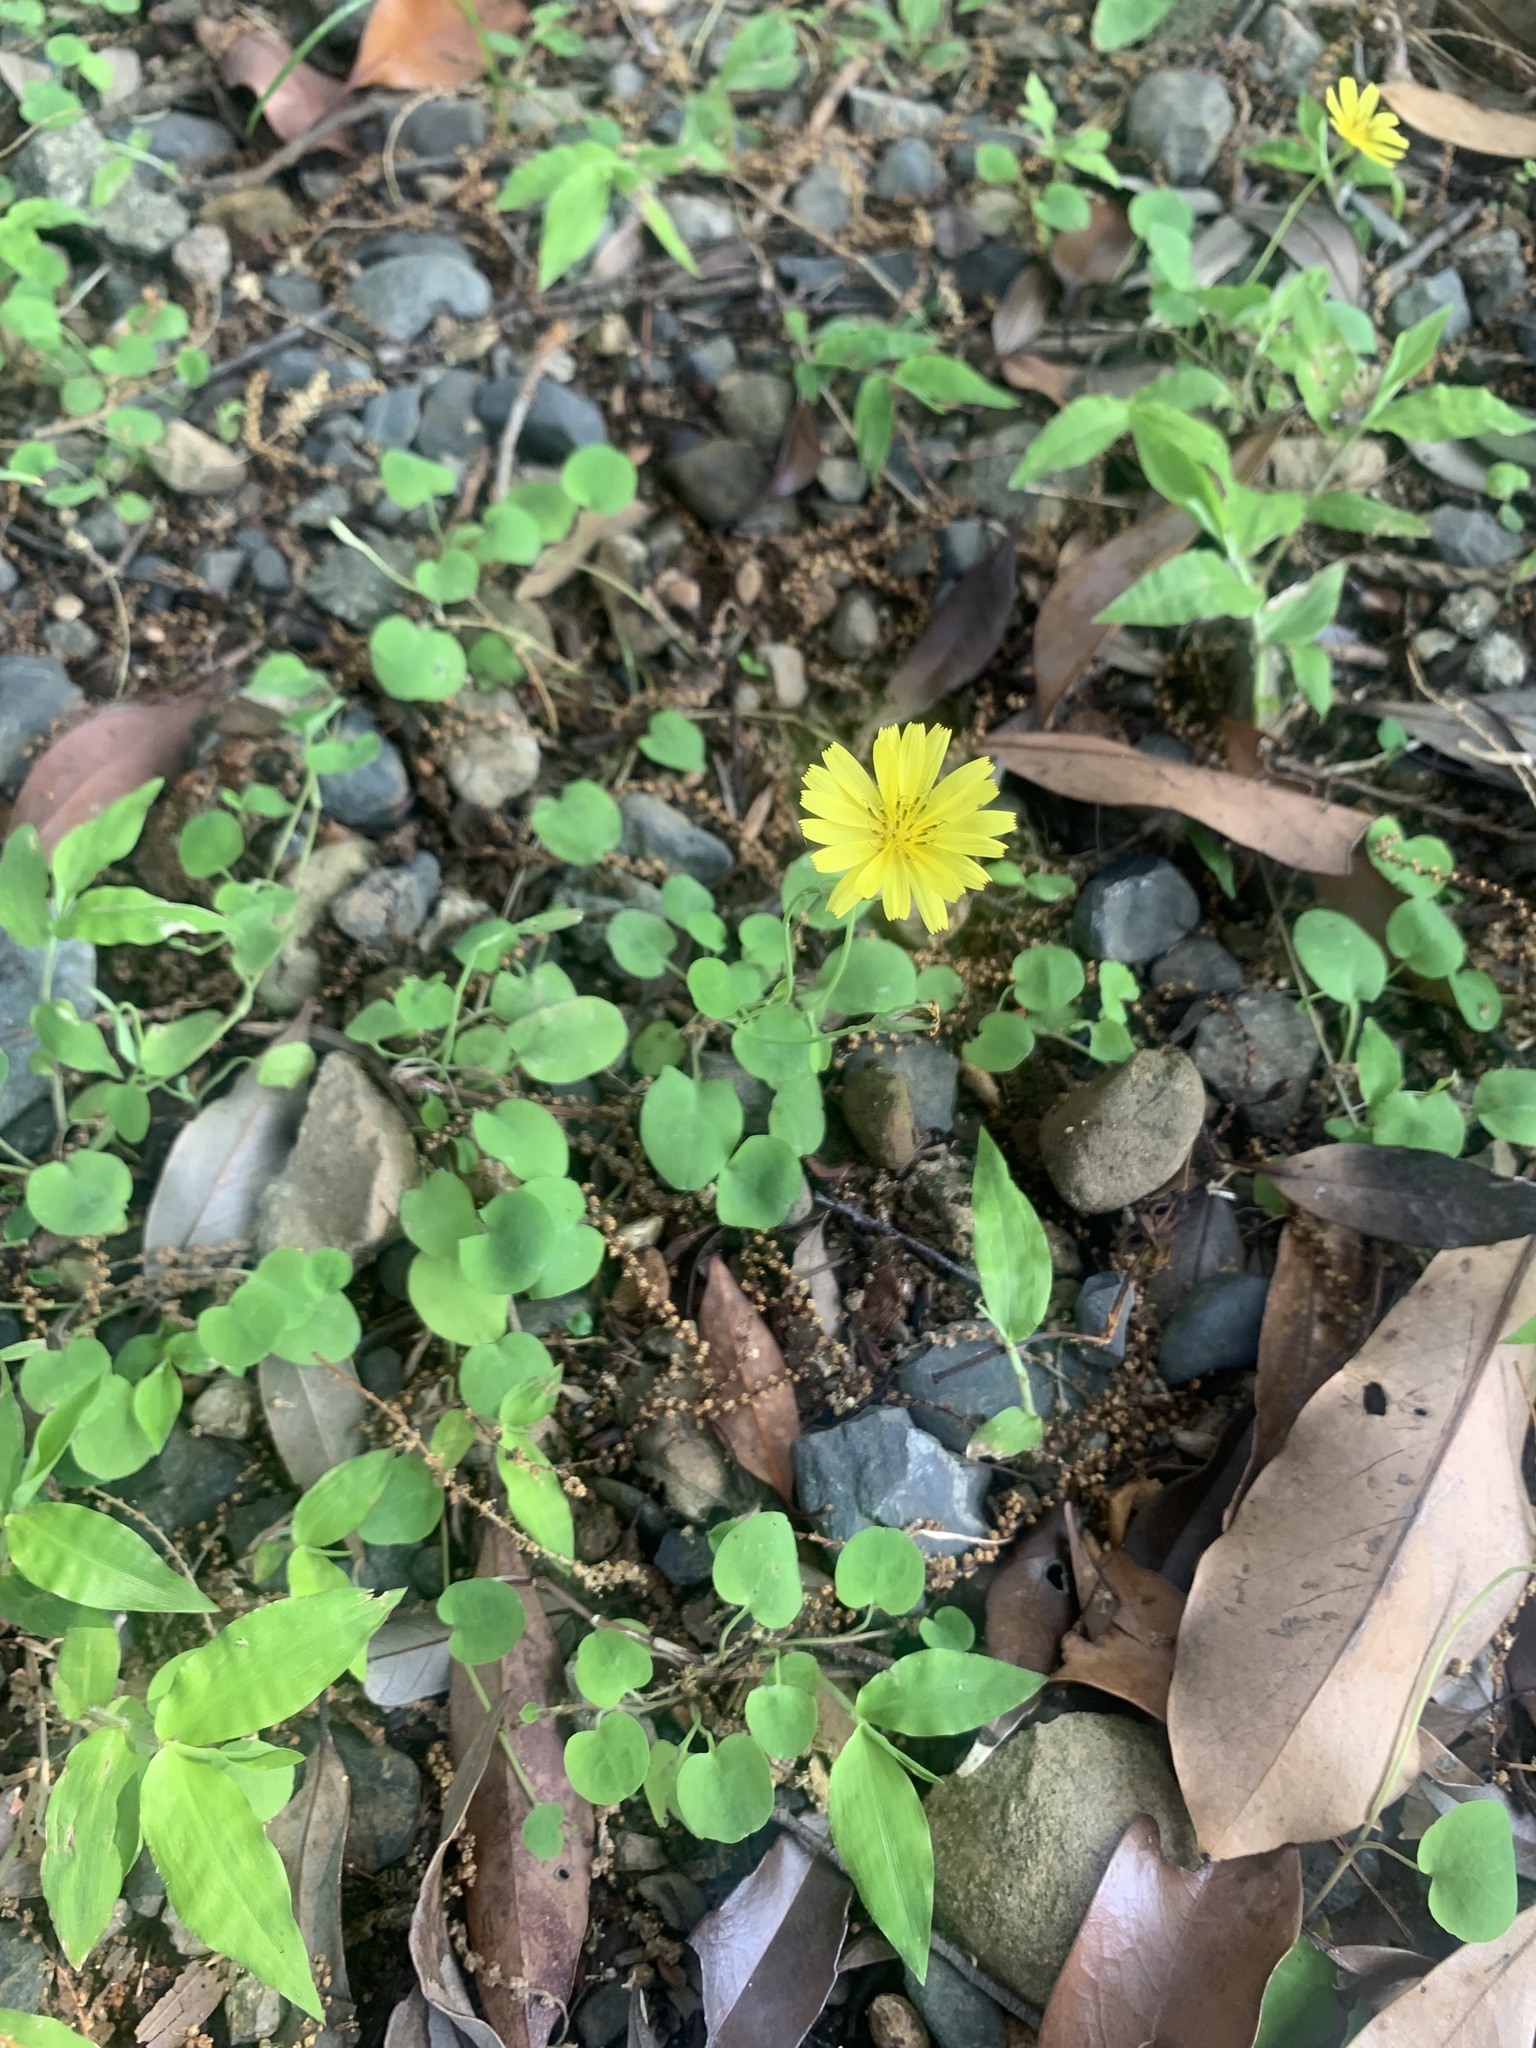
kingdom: Plantae
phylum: Tracheophyta
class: Magnoliopsida
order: Asterales
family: Asteraceae
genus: Ixeris
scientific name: Ixeris stolonifera
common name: Creeping lettuce
